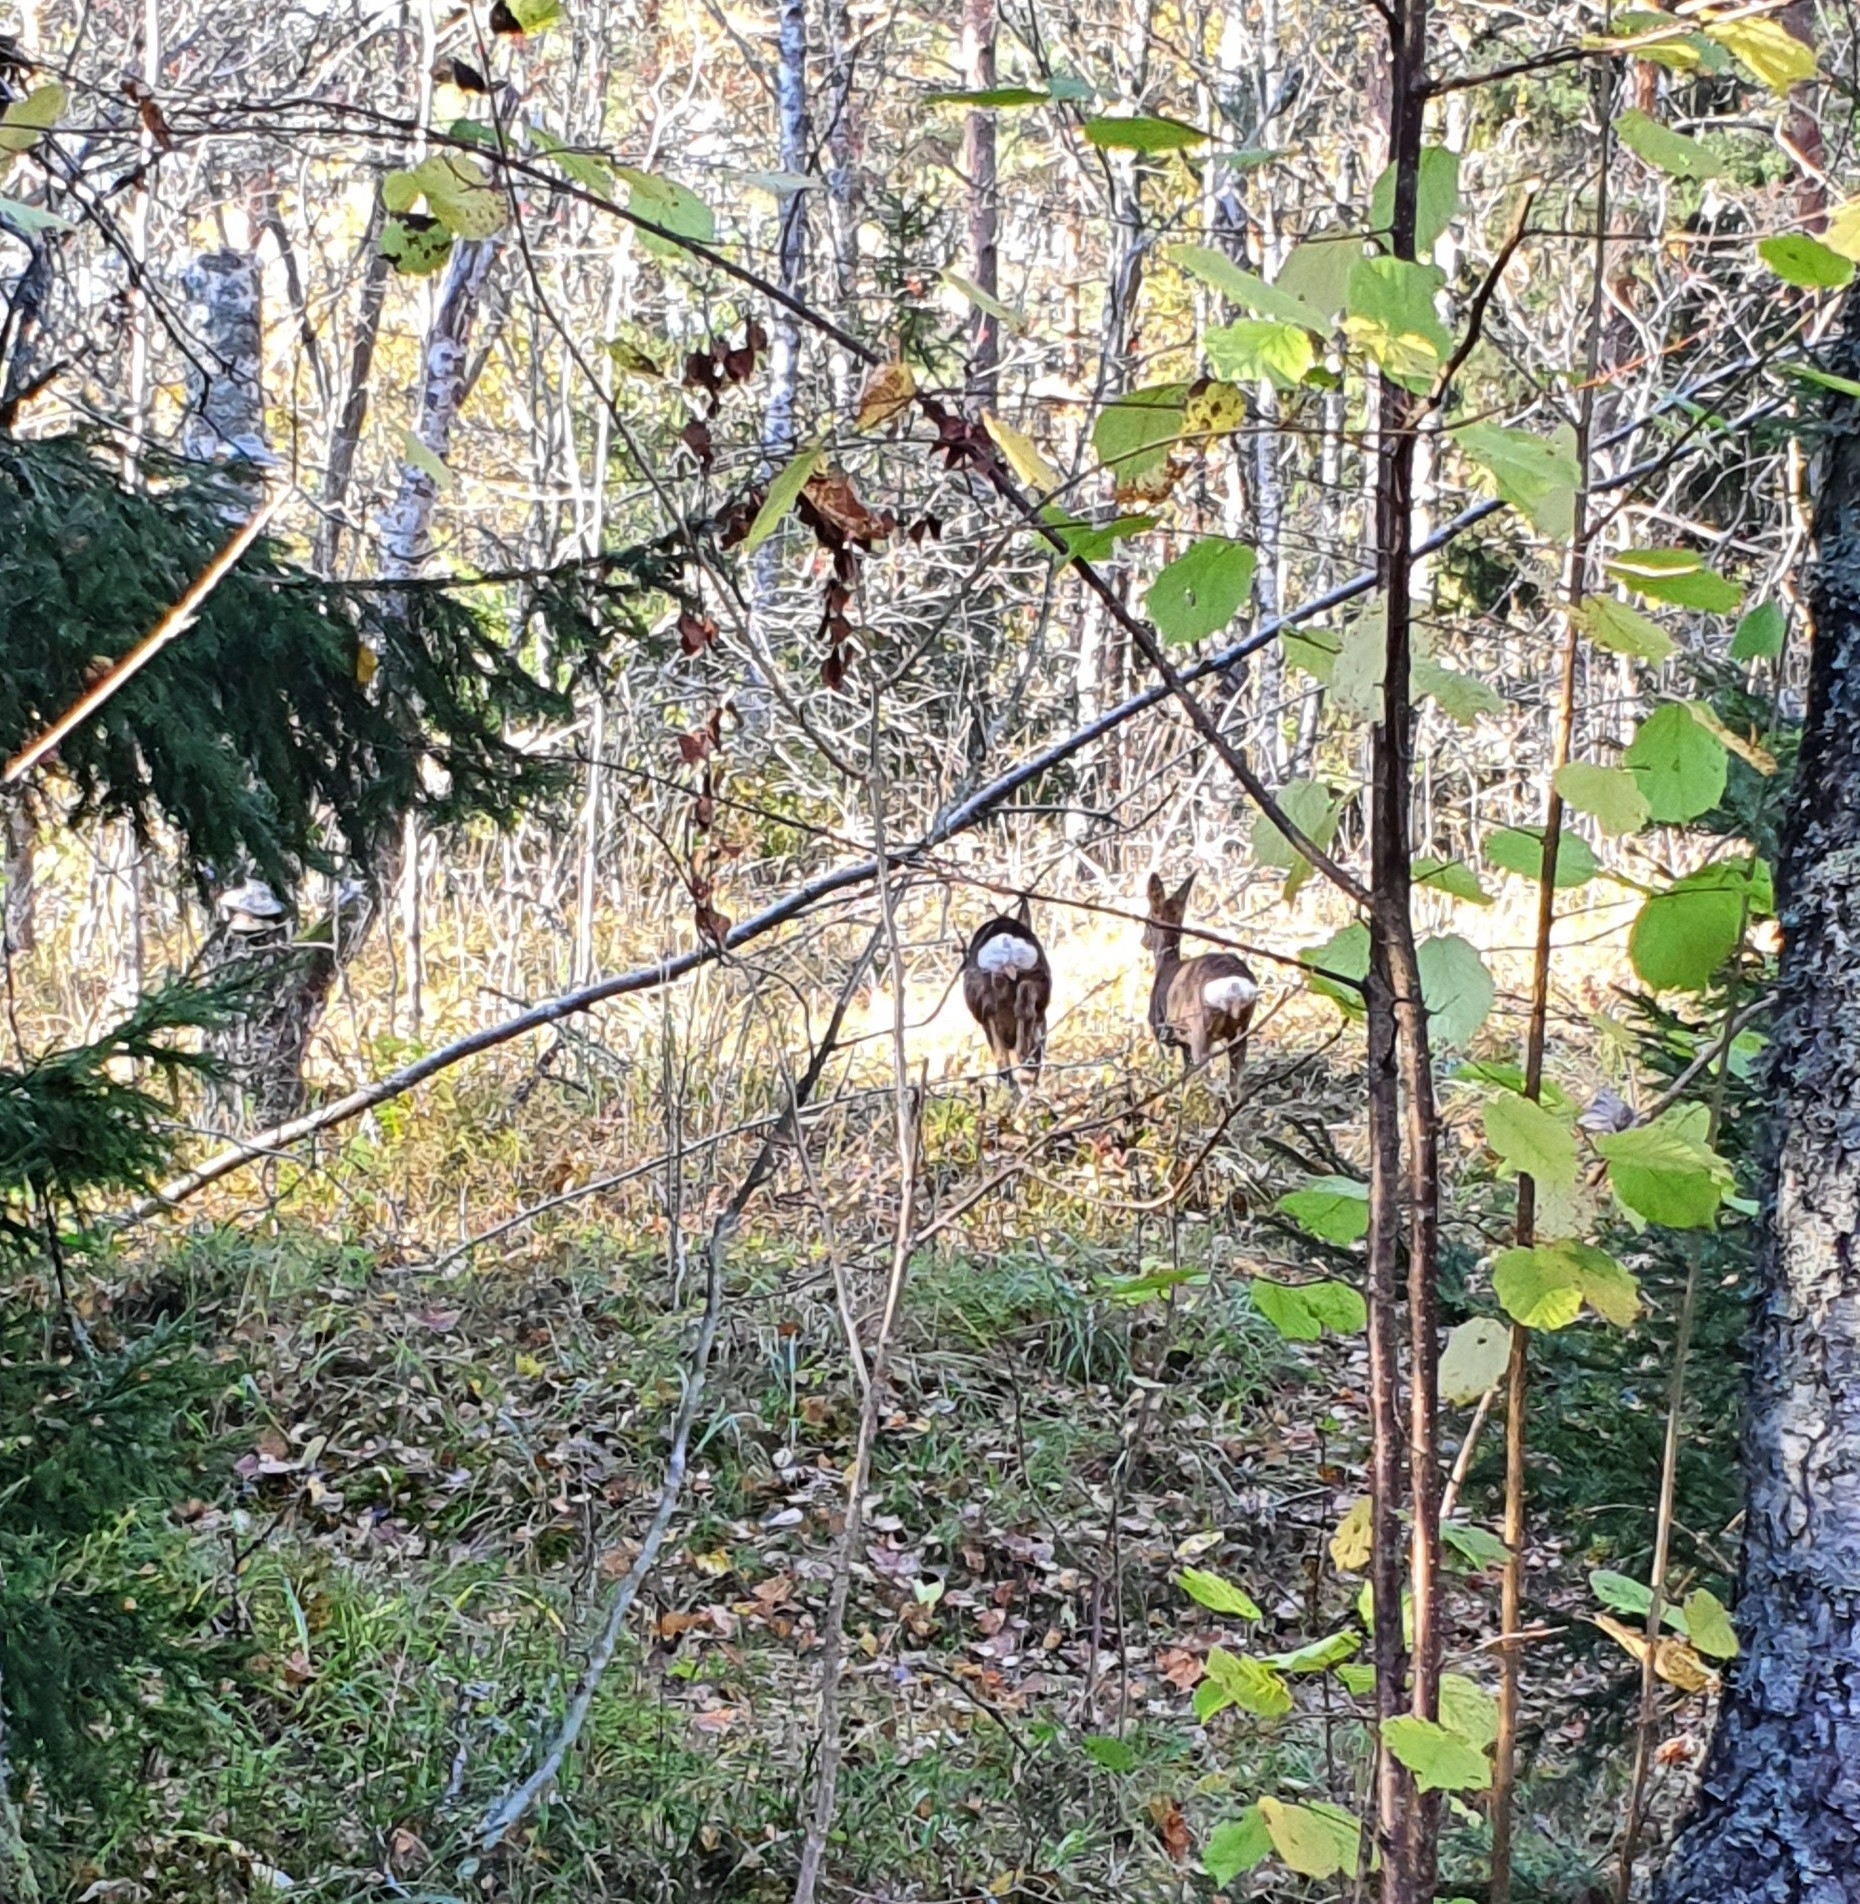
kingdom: Animalia
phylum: Chordata
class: Mammalia
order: Artiodactyla
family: Cervidae
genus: Capreolus
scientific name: Capreolus capreolus
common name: Western roe deer
